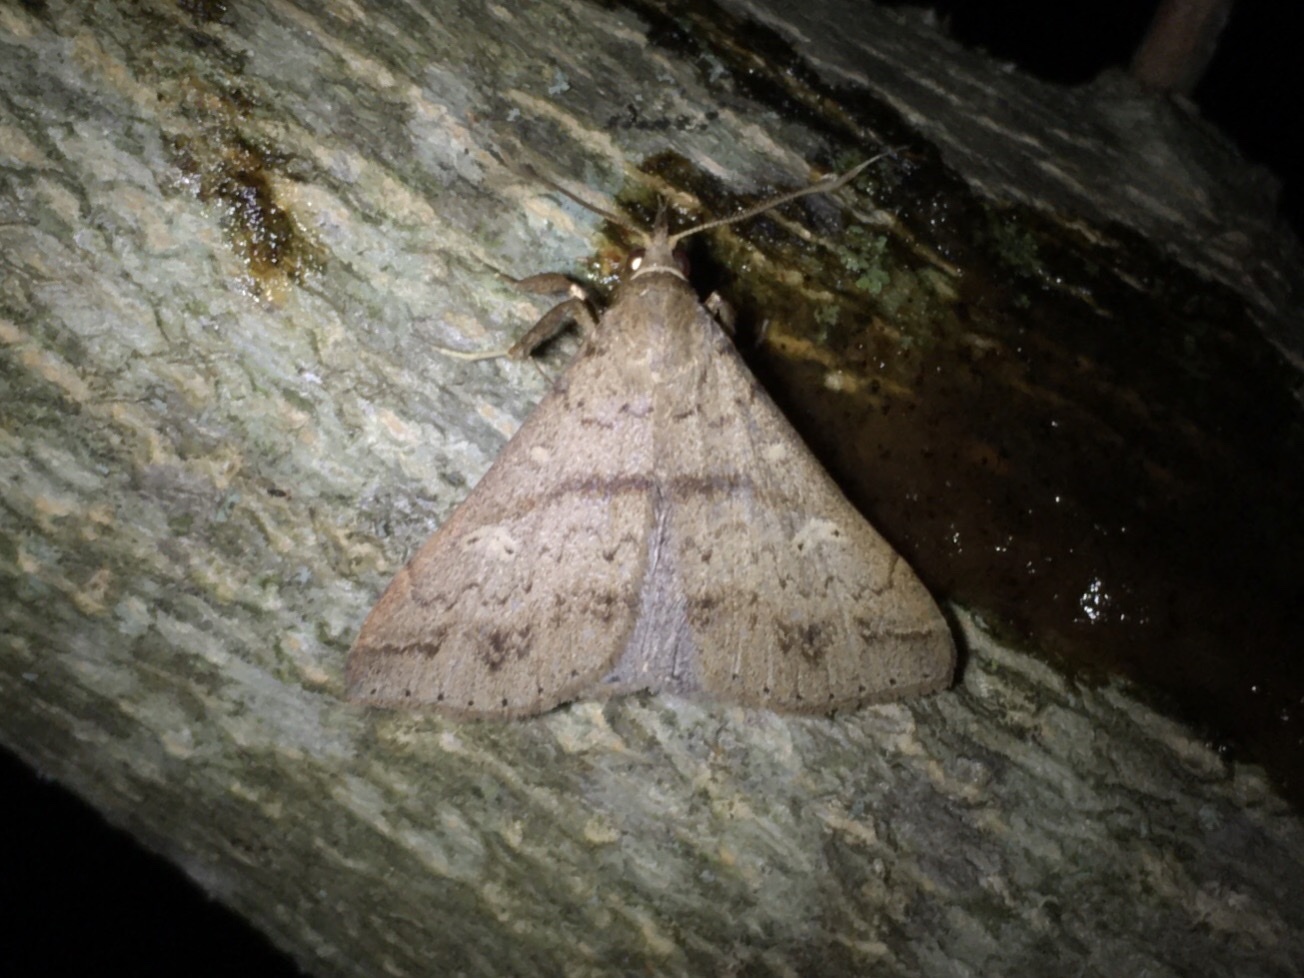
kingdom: Animalia
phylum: Arthropoda
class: Insecta
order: Lepidoptera
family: Erebidae
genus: Renia
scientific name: Renia discoloralis
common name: Discolored renia moth
